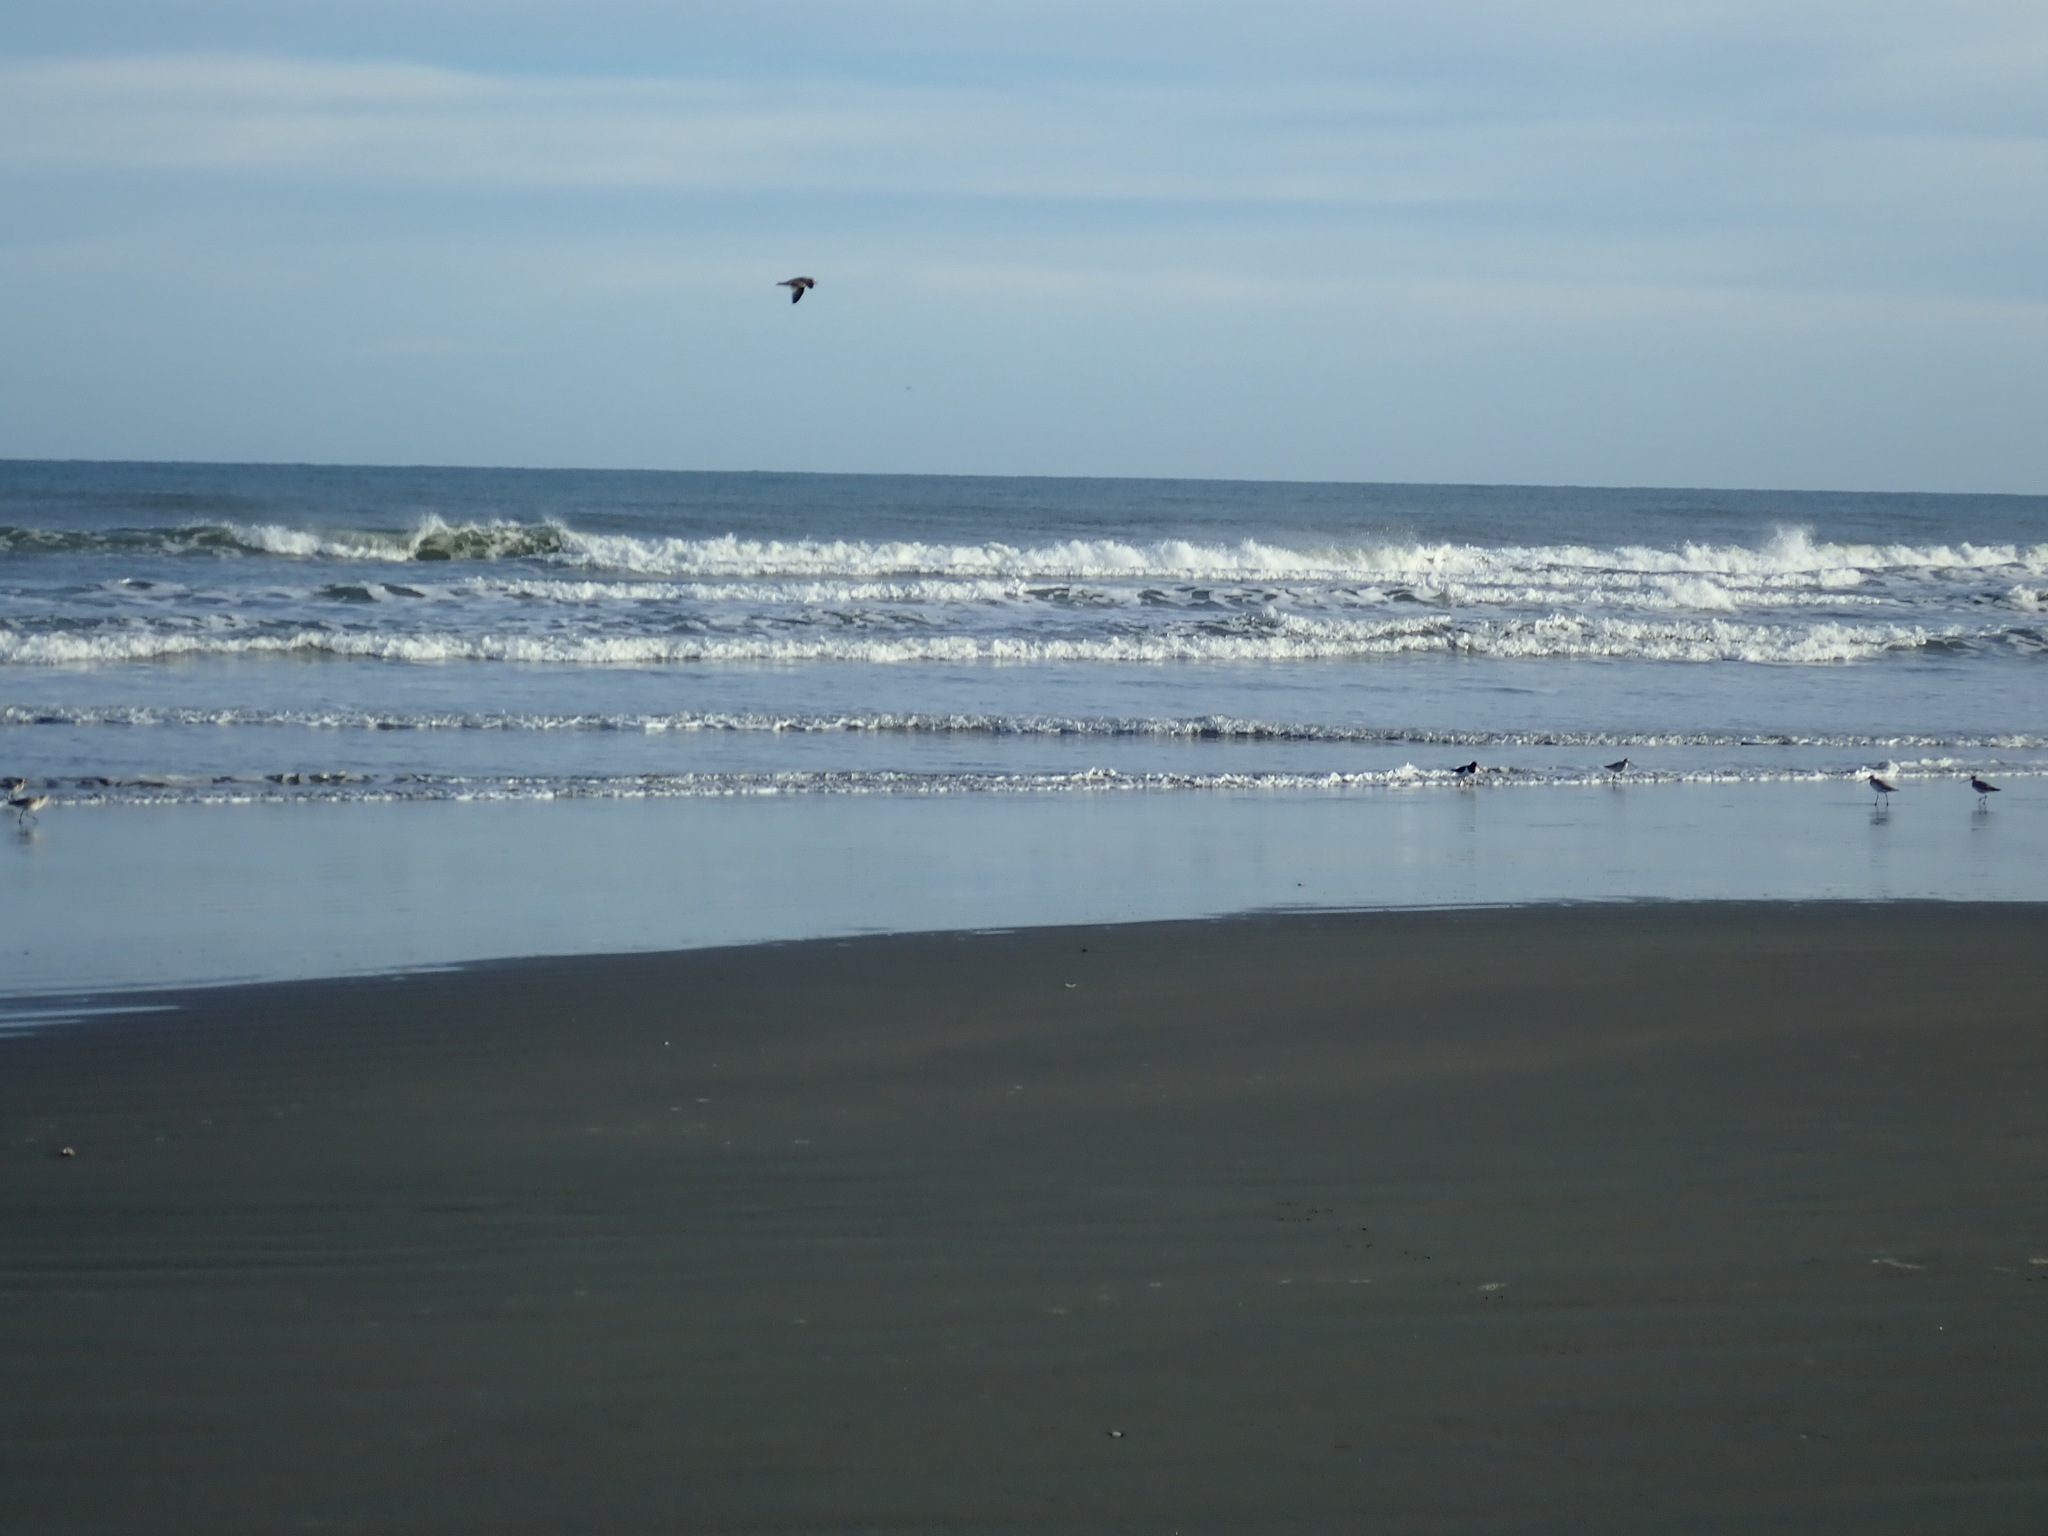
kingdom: Animalia
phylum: Chordata
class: Aves
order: Charadriiformes
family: Haematopodidae
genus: Haematopus
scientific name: Haematopus finschi
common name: South island oystercatcher
